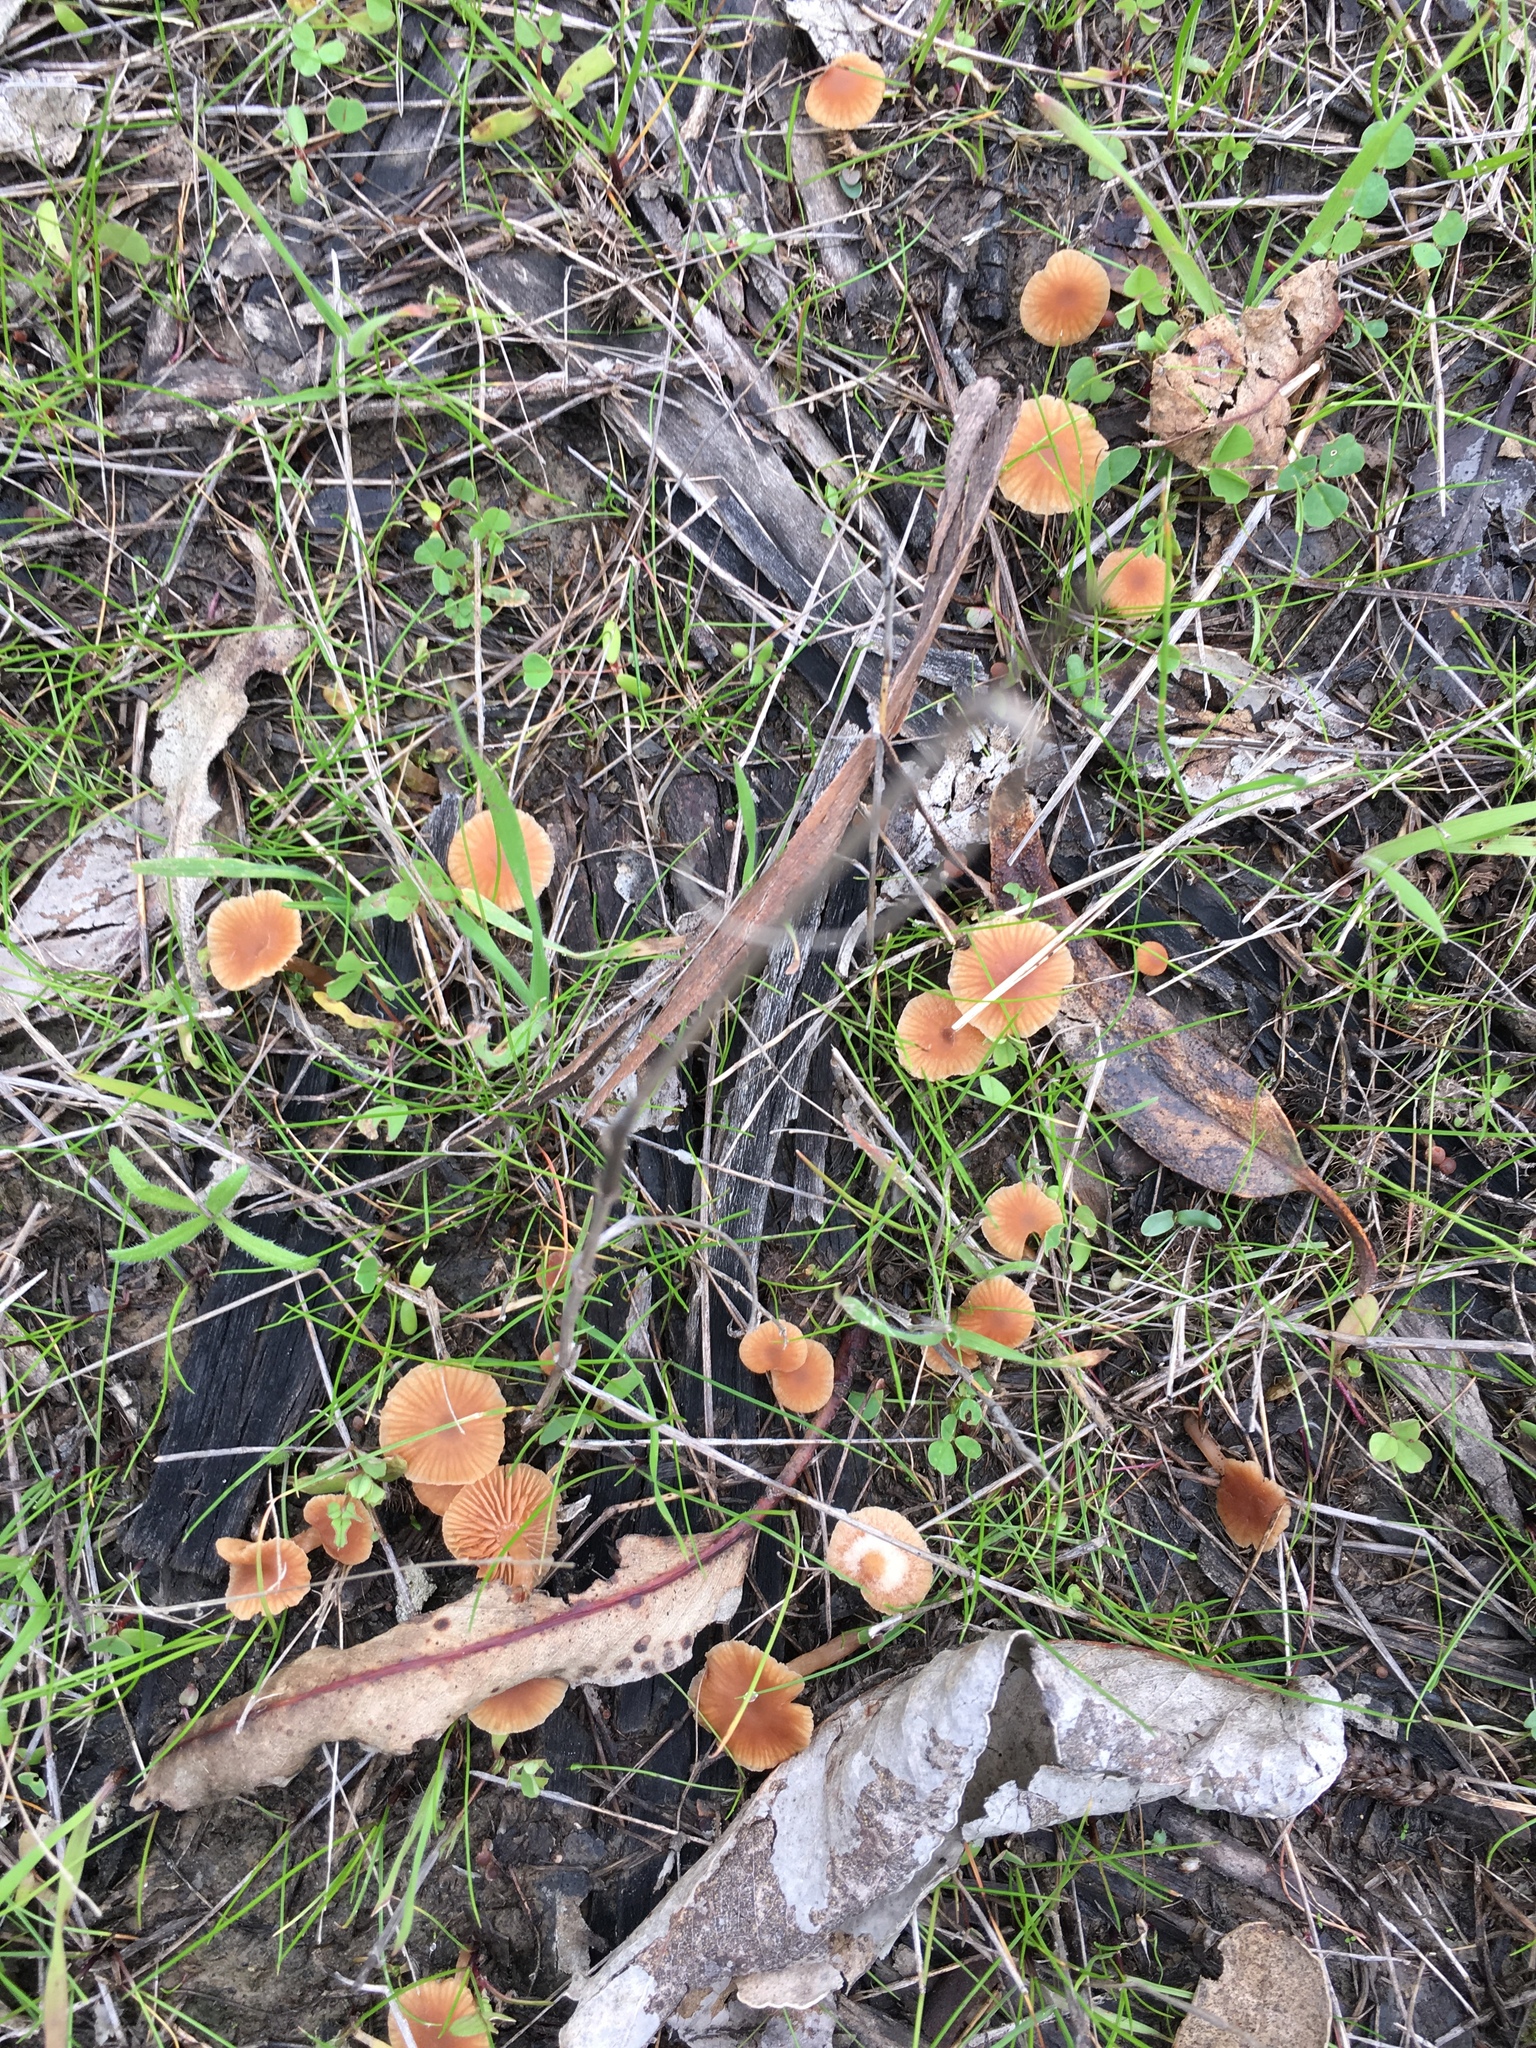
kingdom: Fungi
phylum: Basidiomycota
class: Agaricomycetes
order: Agaricales
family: Tubariaceae
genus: Tubaria
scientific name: Tubaria furfuracea
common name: Scurfy twiglet
